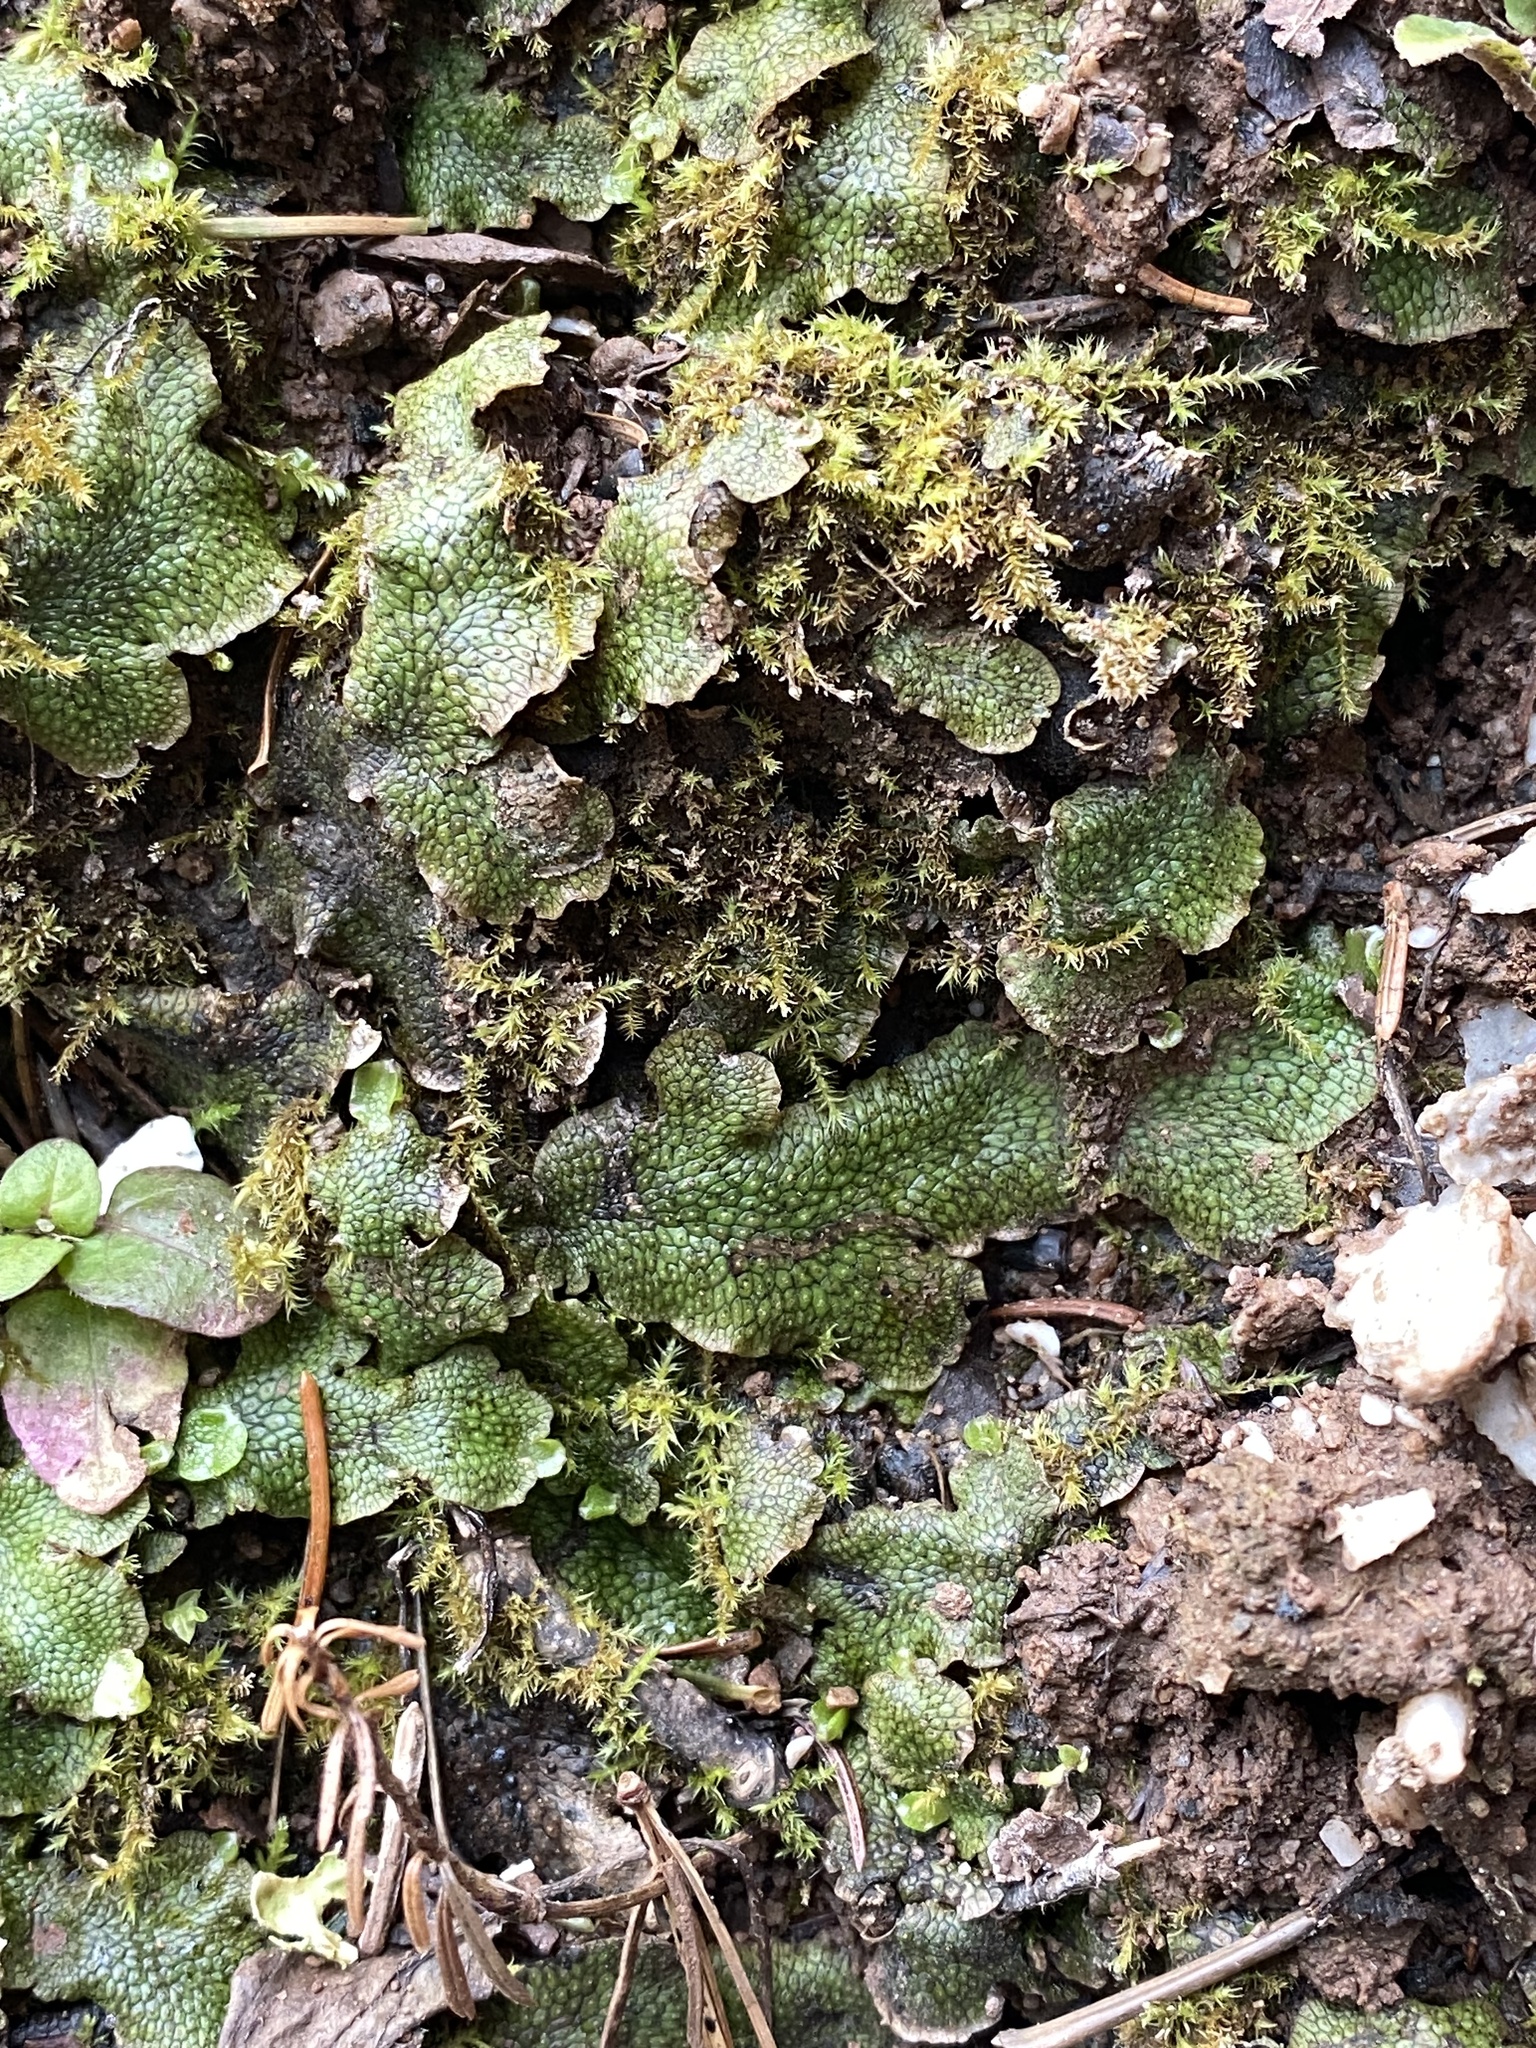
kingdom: Plantae
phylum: Marchantiophyta
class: Marchantiopsida
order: Marchantiales
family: Conocephalaceae
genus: Conocephalum
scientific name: Conocephalum salebrosum
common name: Cat-tongue liverwort
